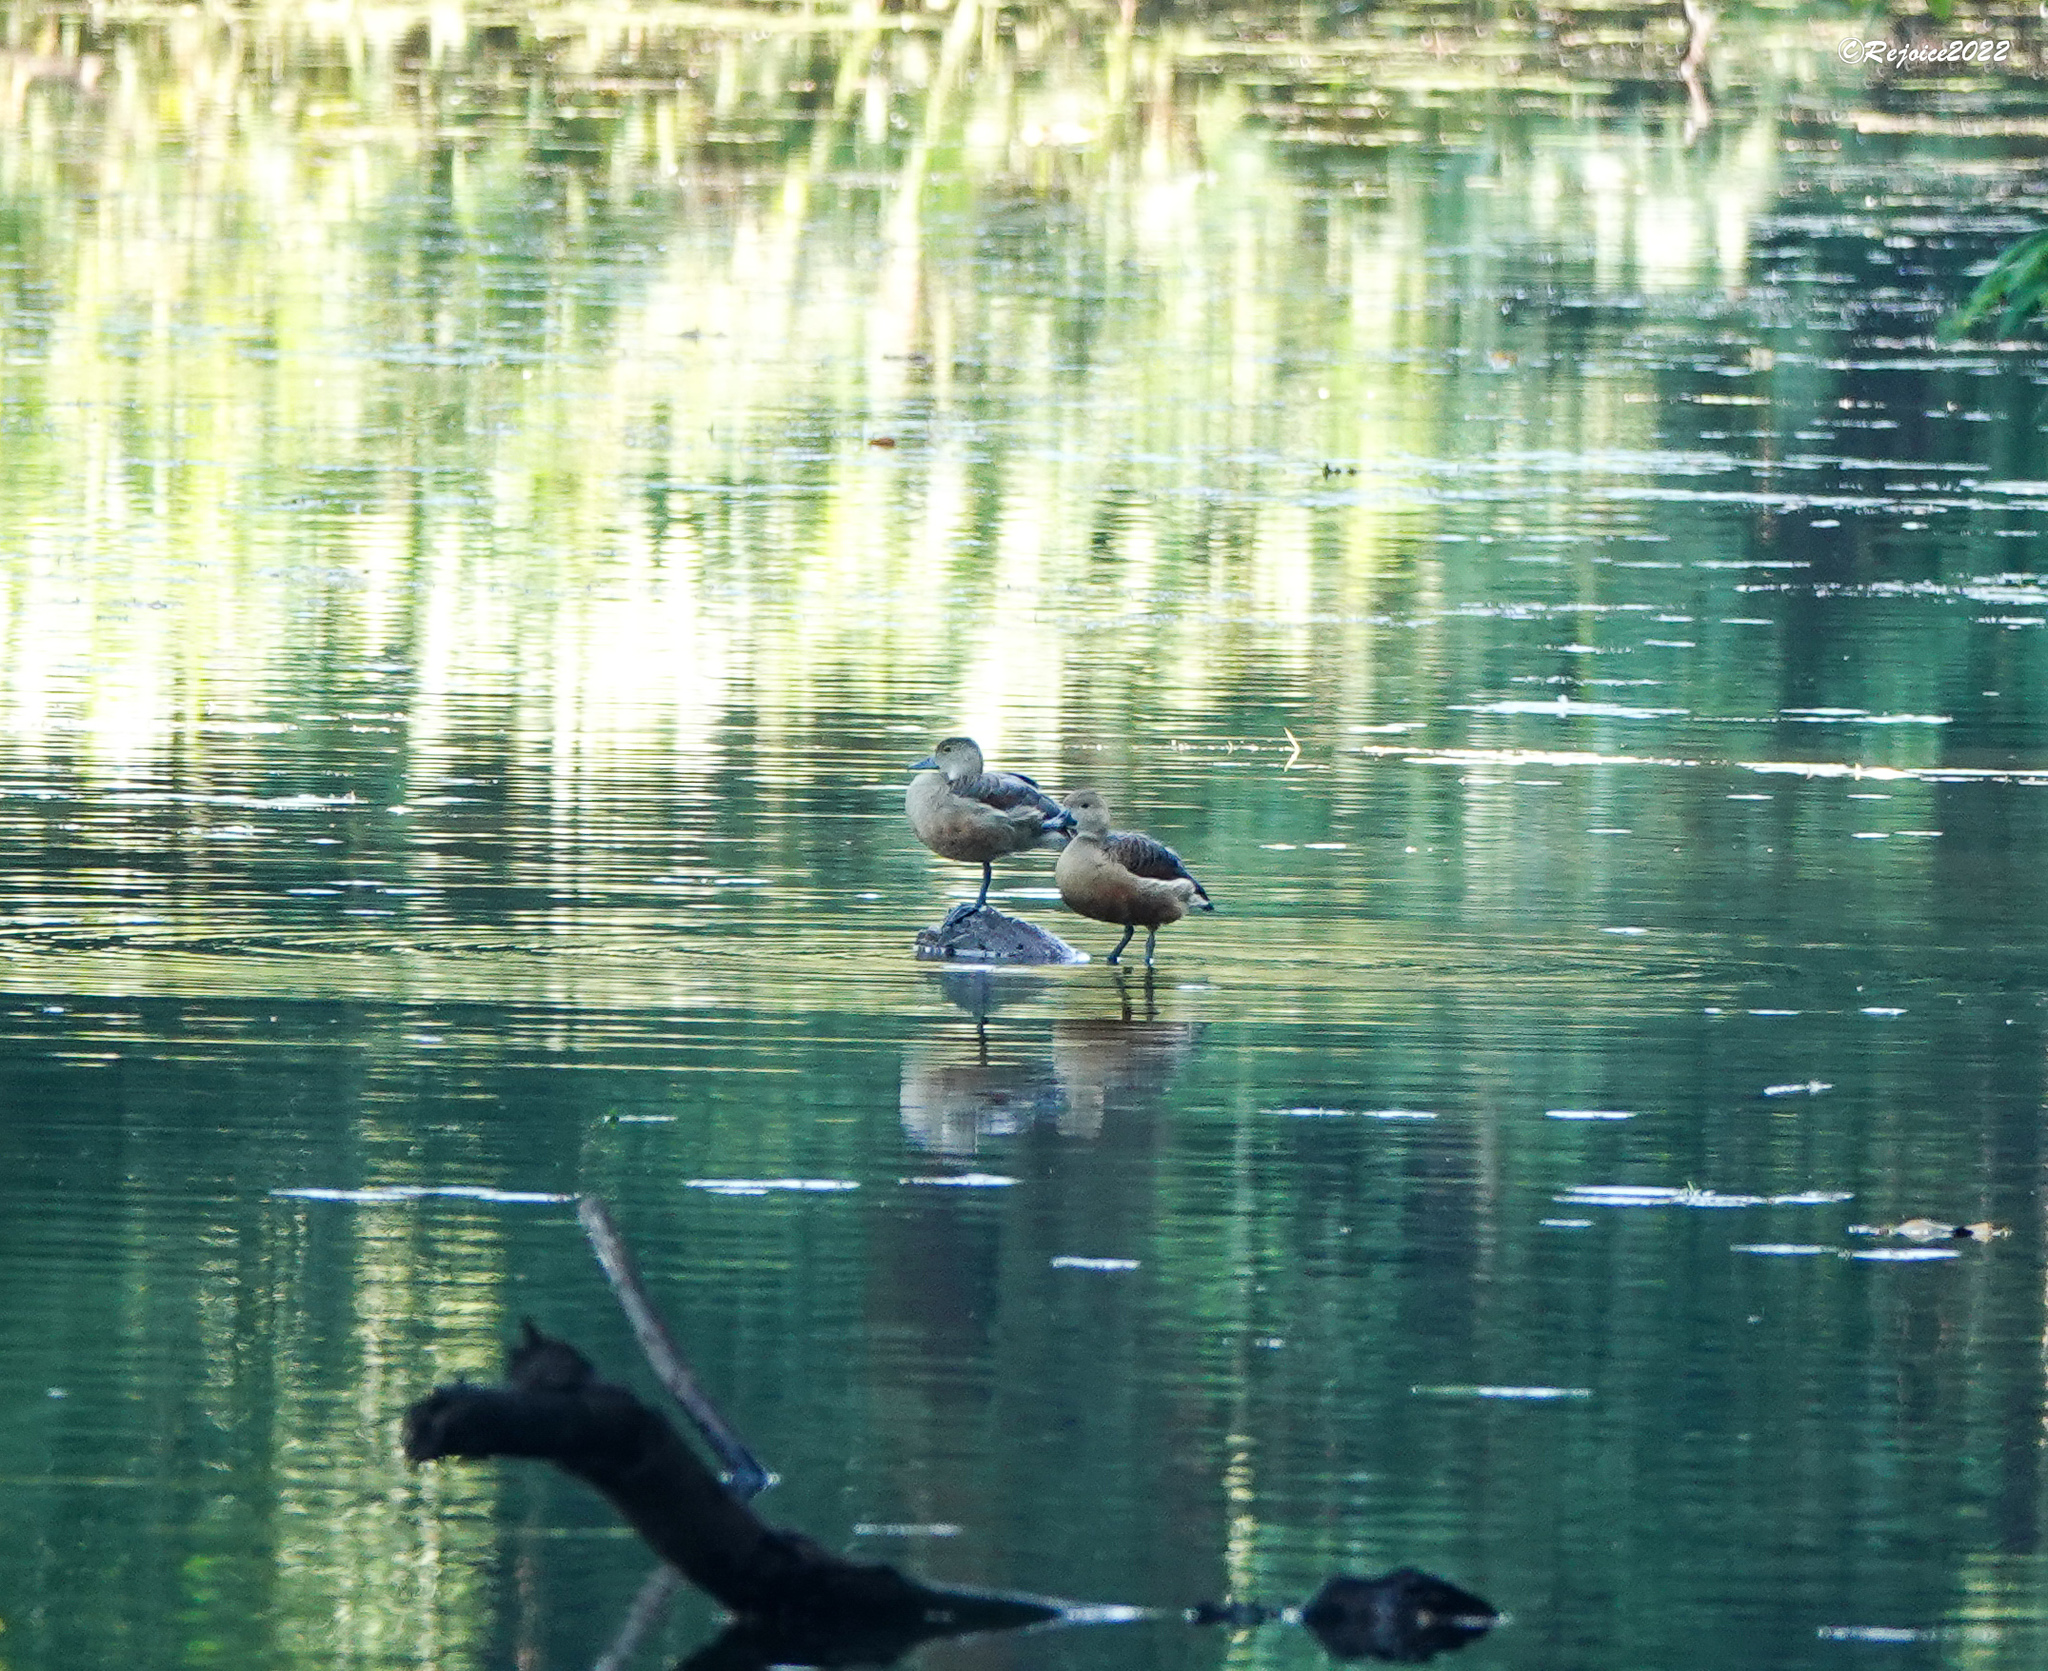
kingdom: Animalia
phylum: Chordata
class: Aves
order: Anseriformes
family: Anatidae
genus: Dendrocygna
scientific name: Dendrocygna javanica
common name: Lesser whistling-duck
